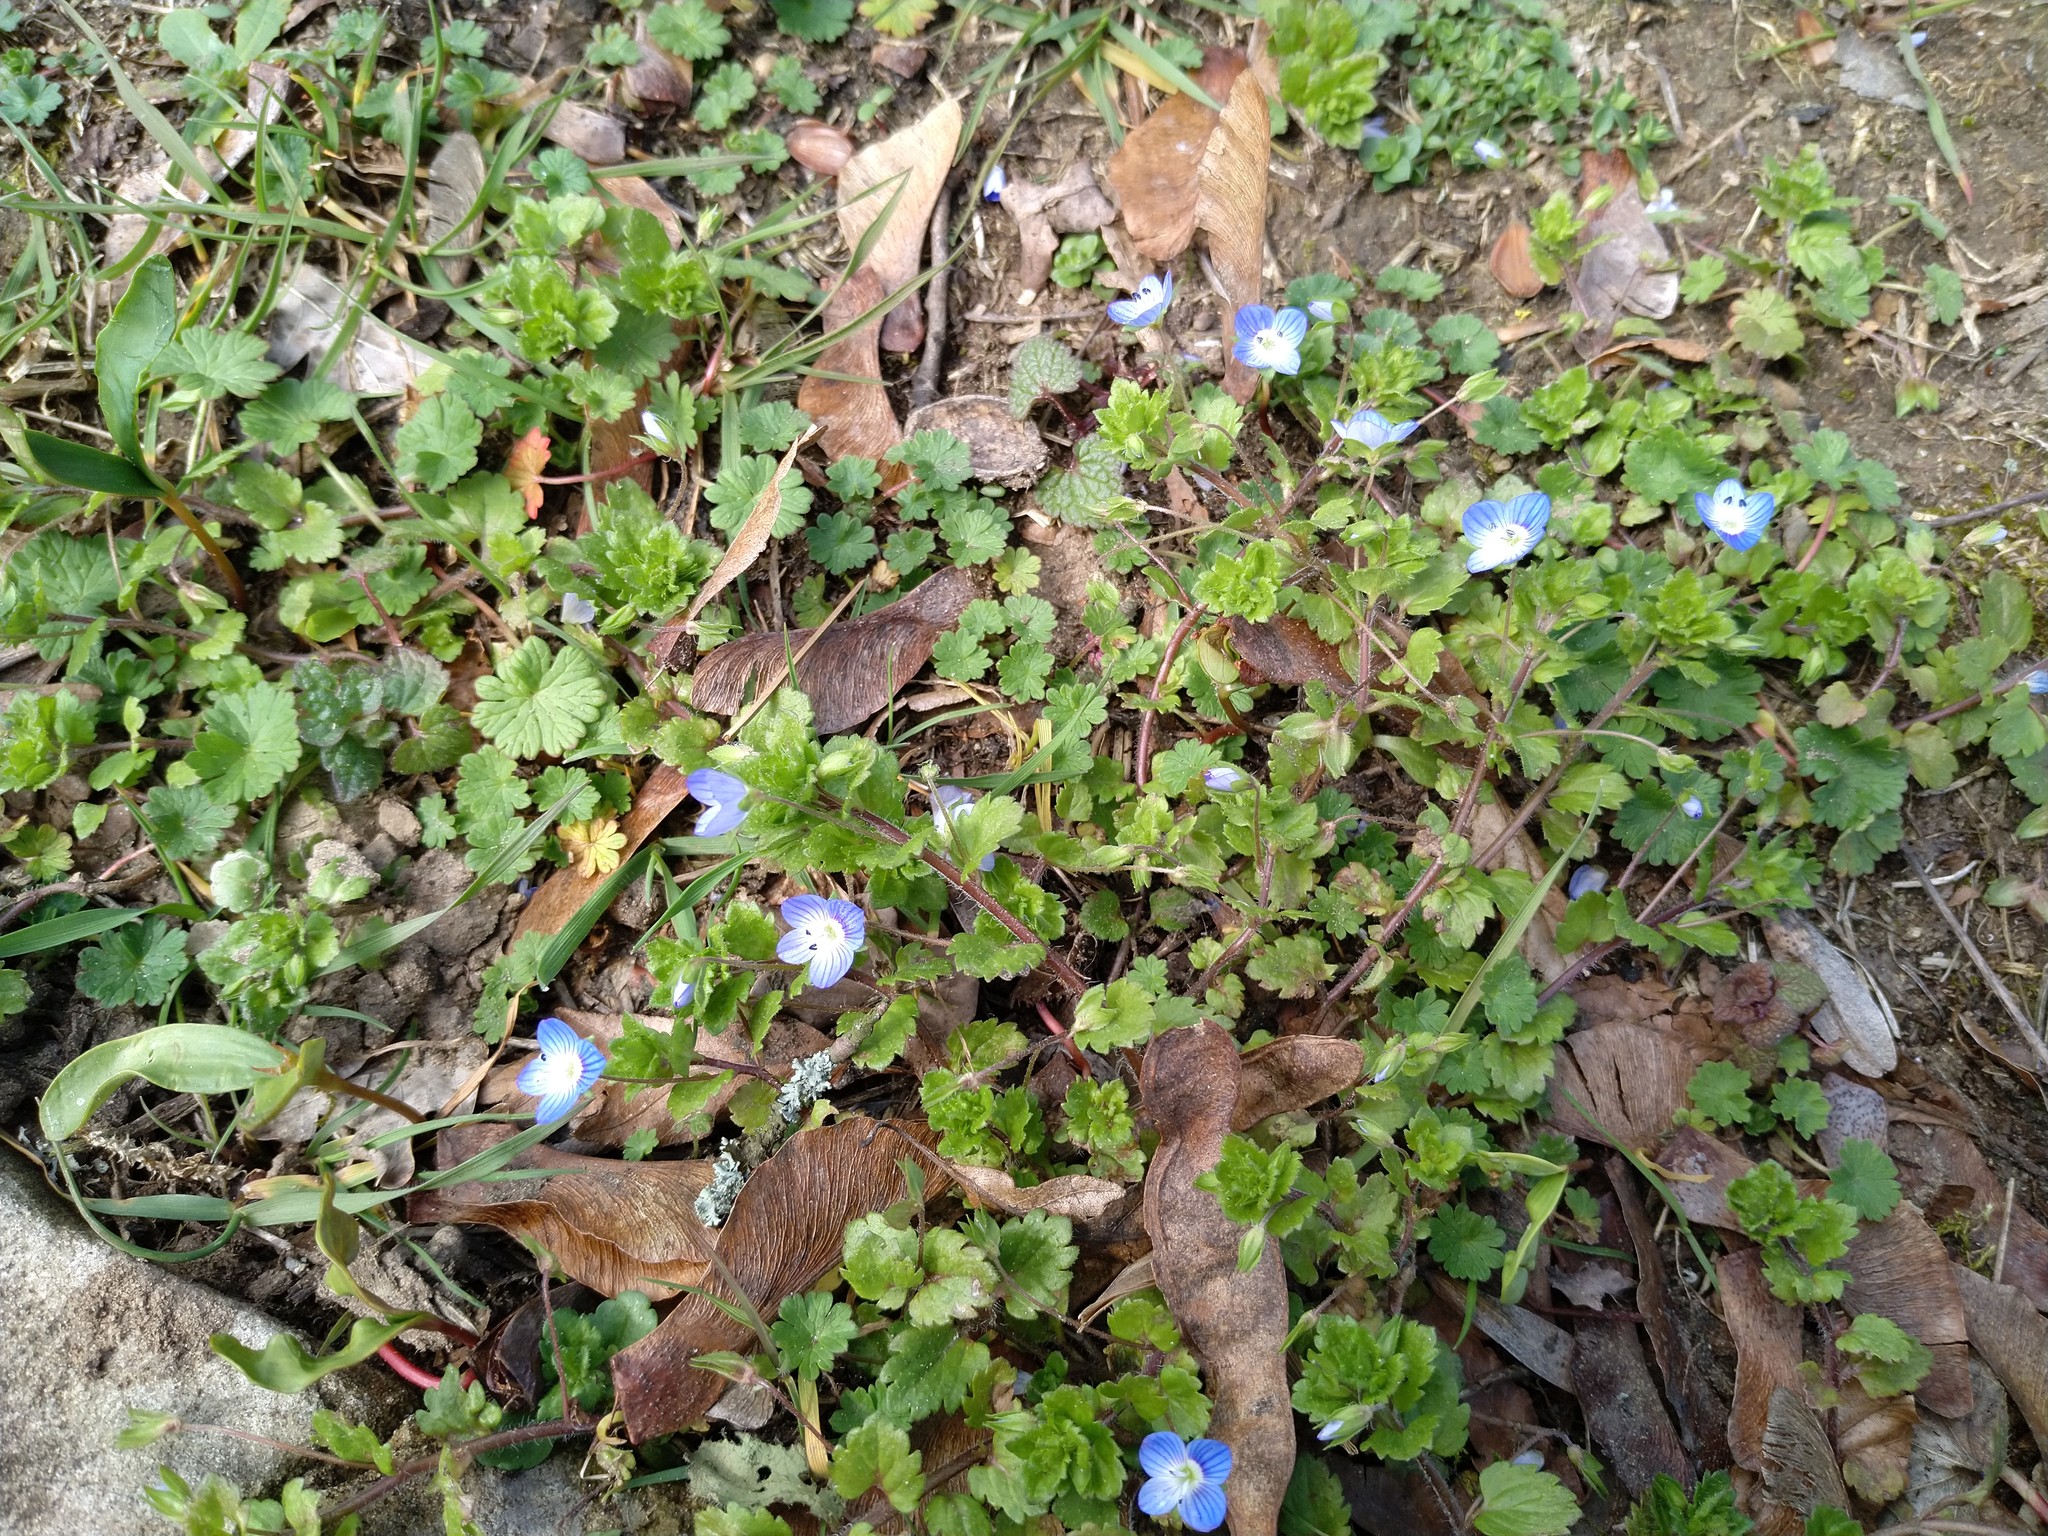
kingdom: Plantae
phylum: Tracheophyta
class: Magnoliopsida
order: Lamiales
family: Plantaginaceae
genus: Veronica
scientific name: Veronica persica
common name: Common field-speedwell
